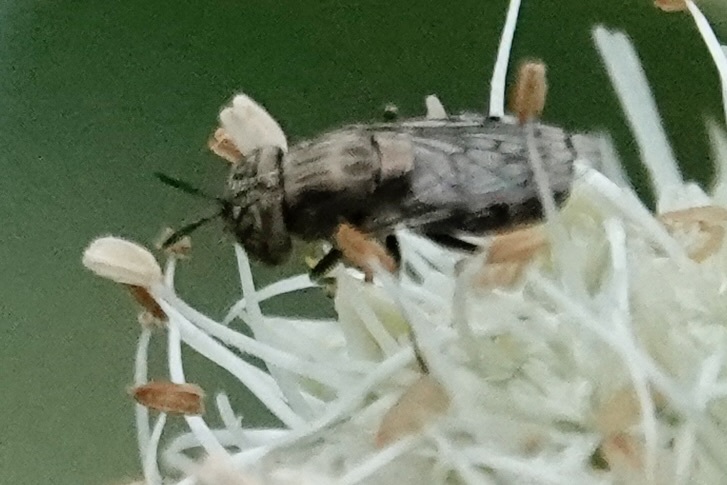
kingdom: Animalia
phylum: Arthropoda
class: Insecta
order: Diptera
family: Syrphidae
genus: Orthonevra
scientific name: Orthonevra nitida
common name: Wavy mucksucker
